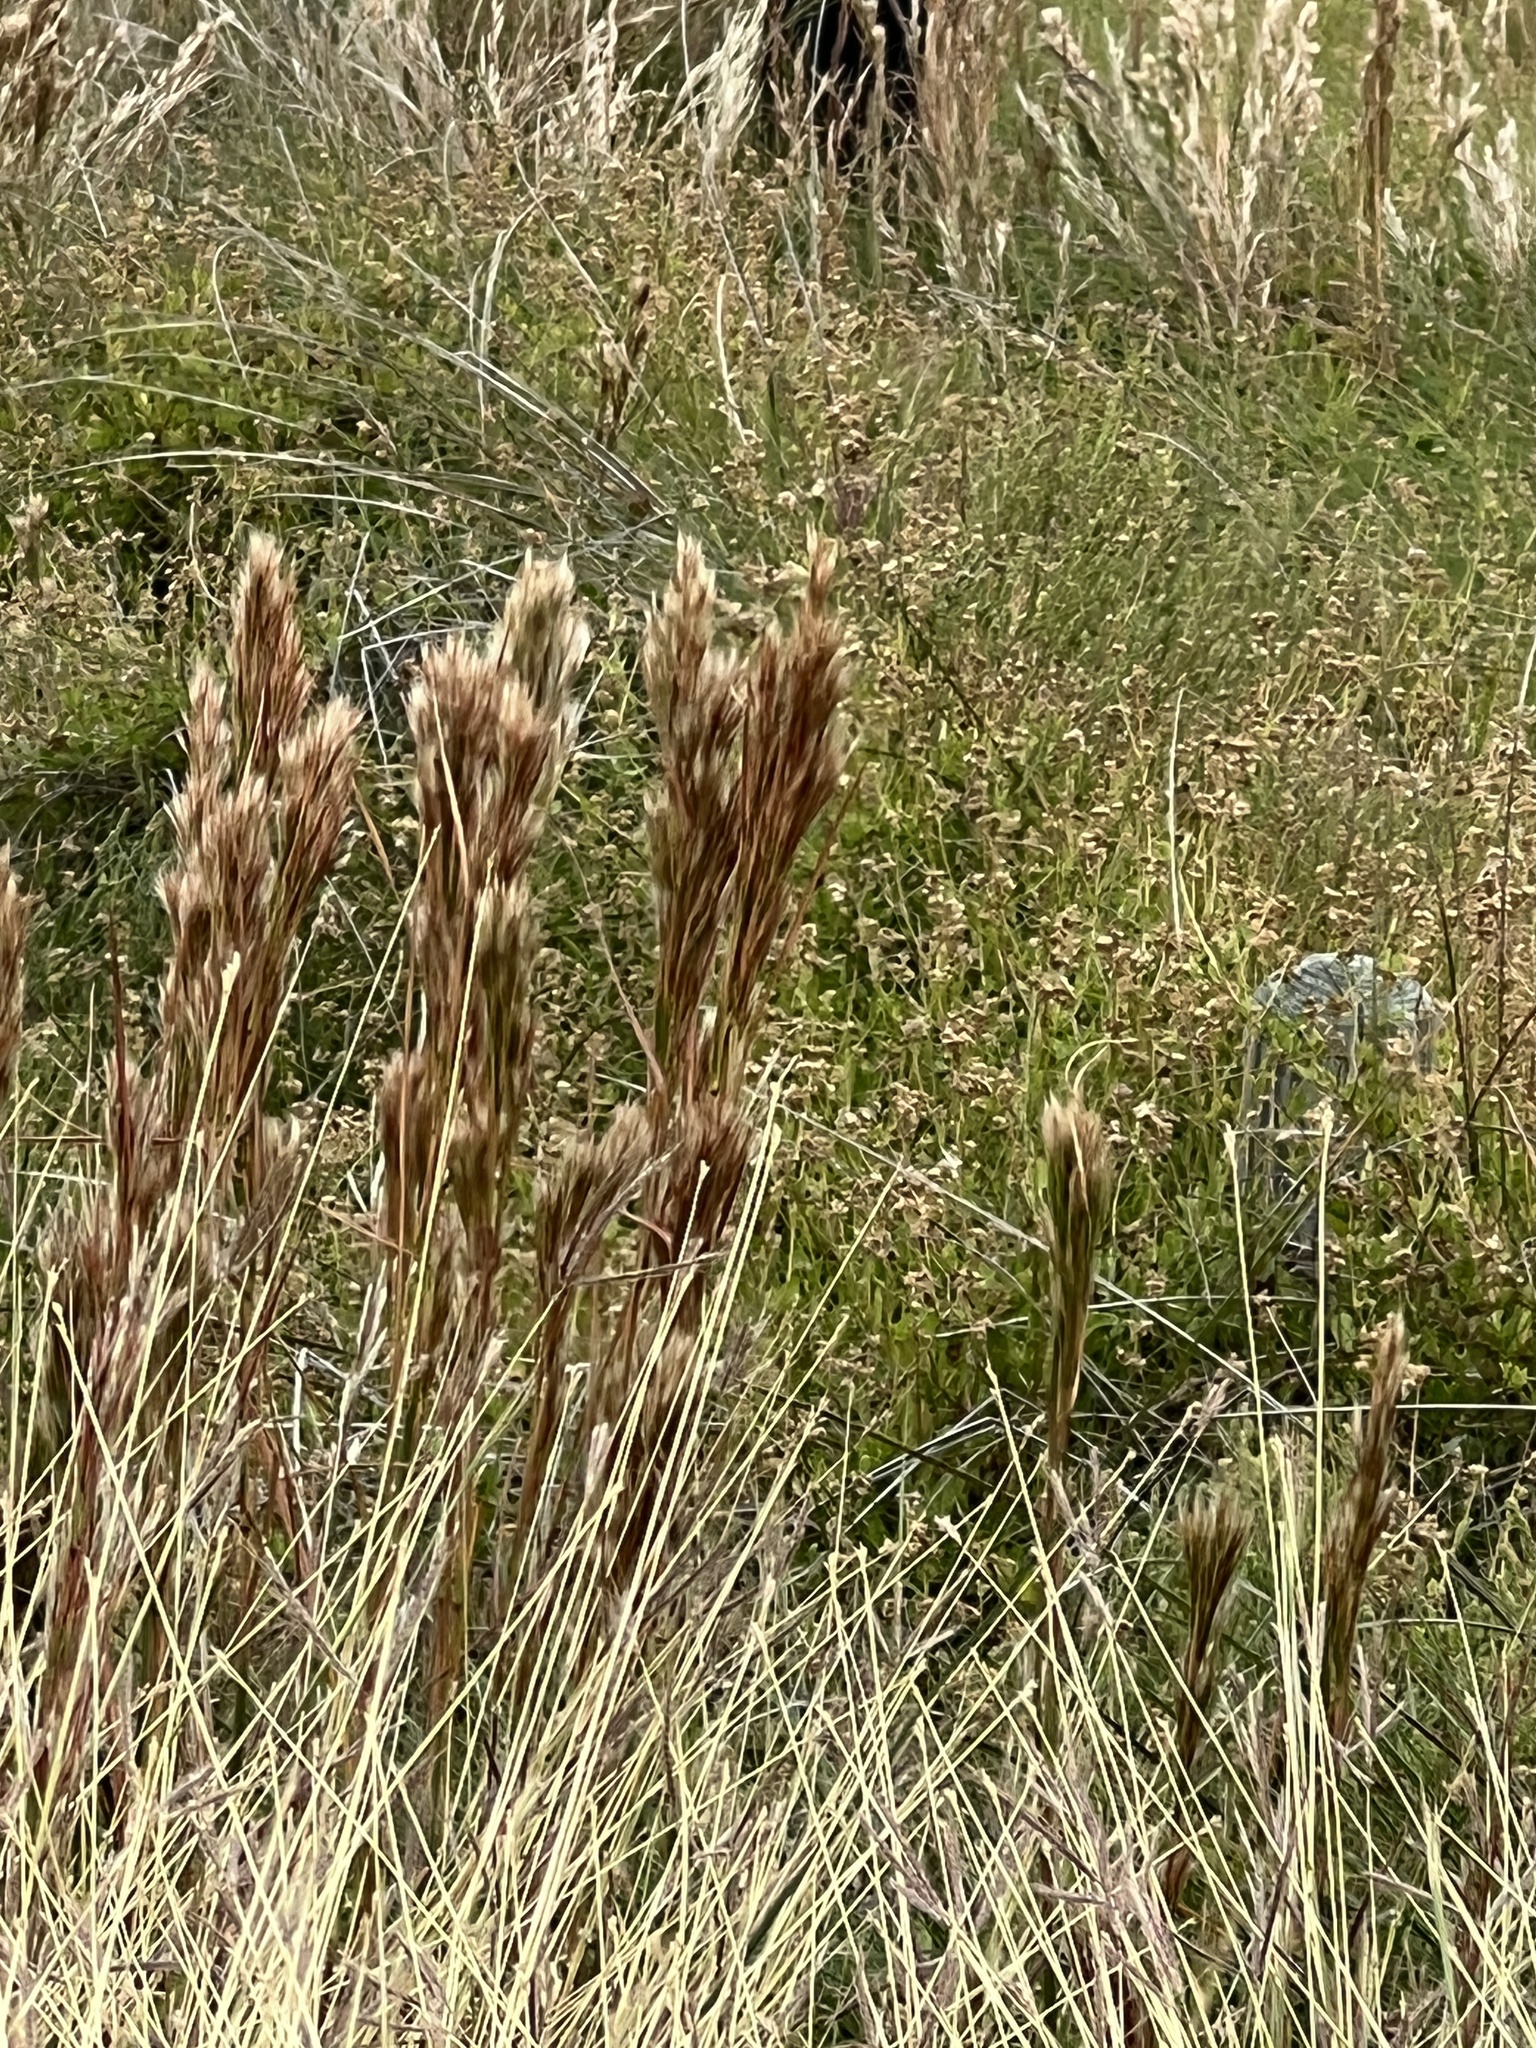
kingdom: Plantae
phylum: Tracheophyta
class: Liliopsida
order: Poales
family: Poaceae
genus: Andropogon
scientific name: Andropogon tenuispatheus
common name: Bushy bluestem
